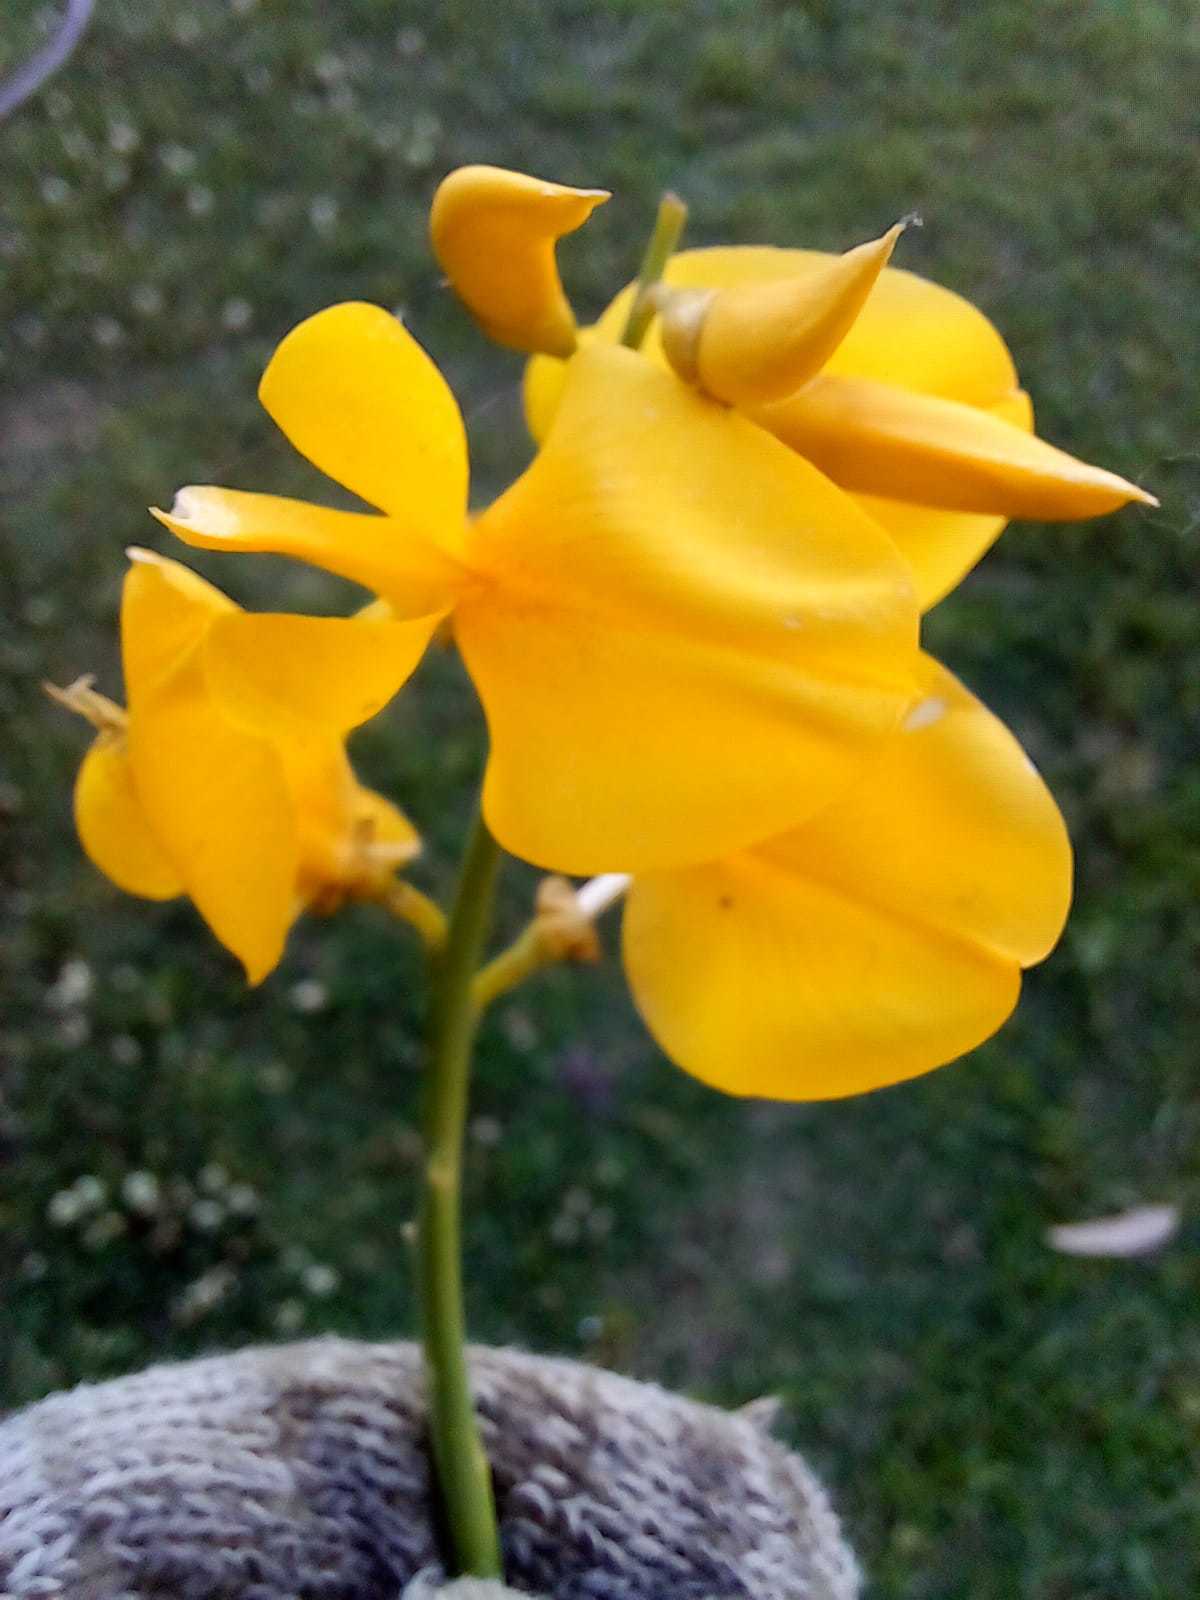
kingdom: Plantae
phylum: Tracheophyta
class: Magnoliopsida
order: Fabales
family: Fabaceae
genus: Spartium
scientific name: Spartium junceum
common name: Spanish broom
